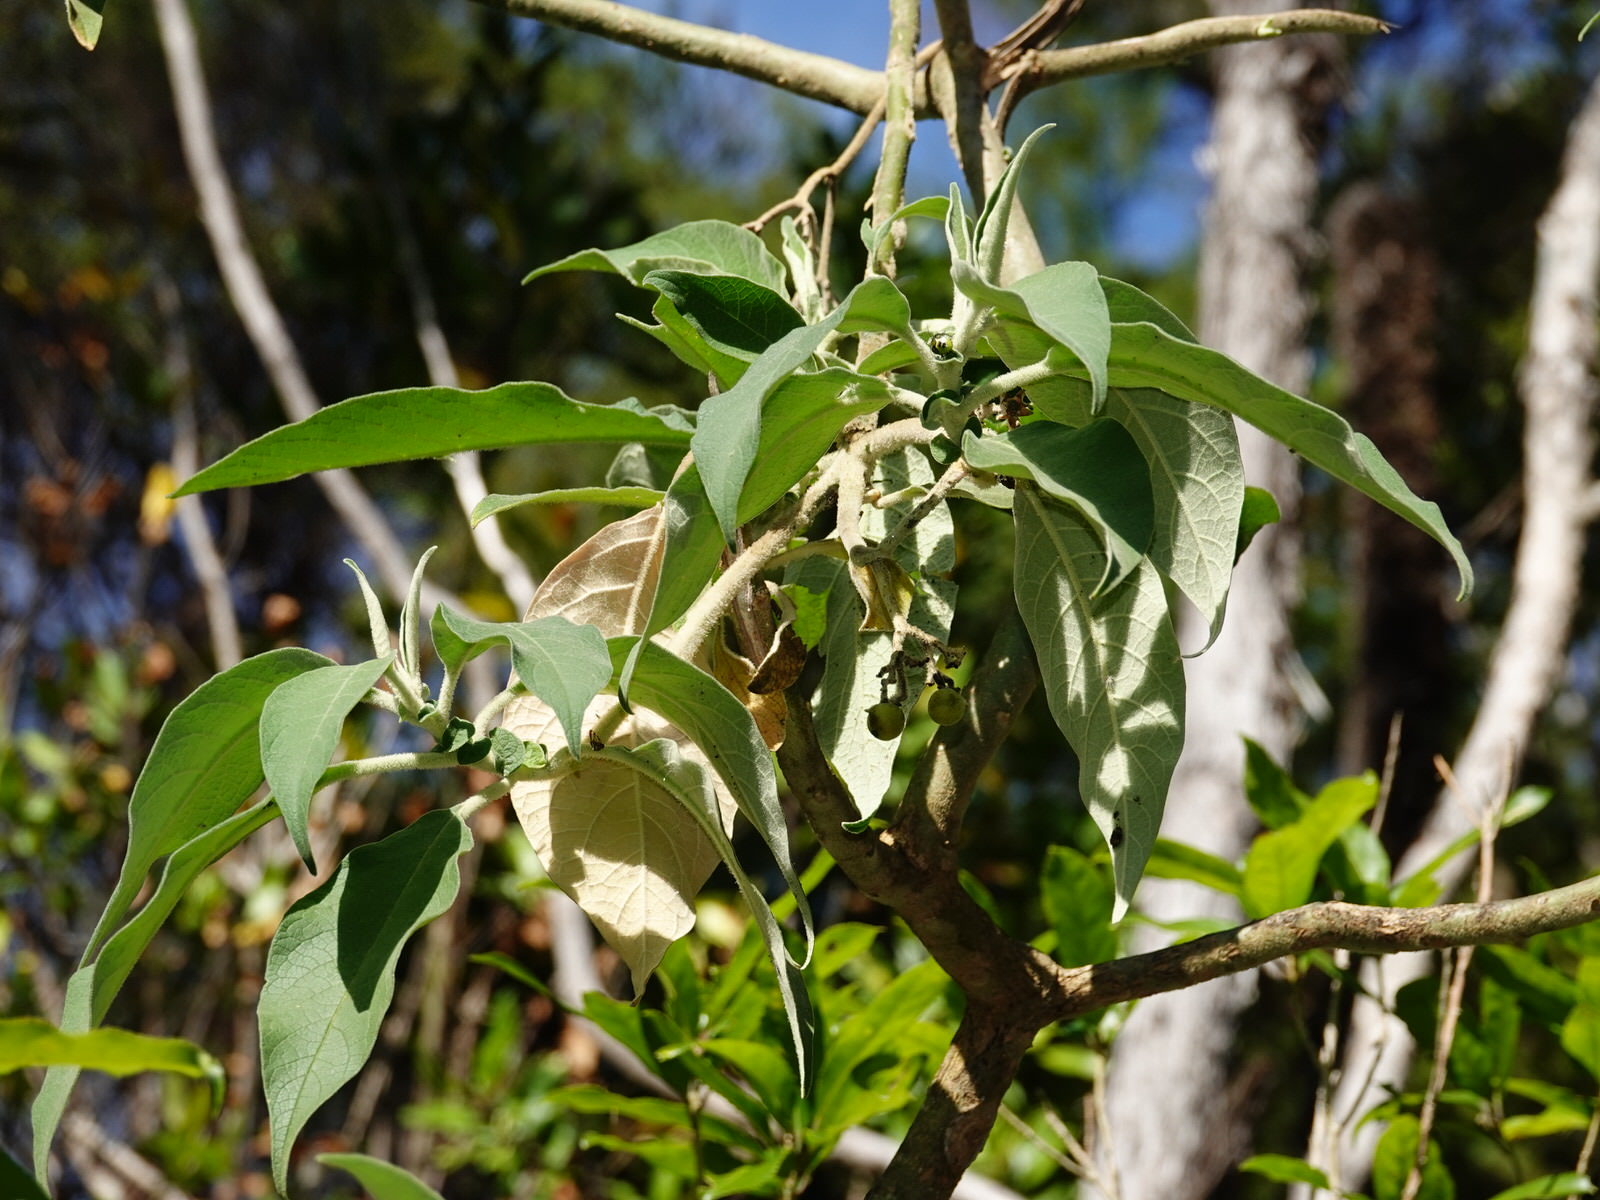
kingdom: Plantae
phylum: Tracheophyta
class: Magnoliopsida
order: Solanales
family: Solanaceae
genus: Solanum
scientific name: Solanum mauritianum
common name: Earleaf nightshade
